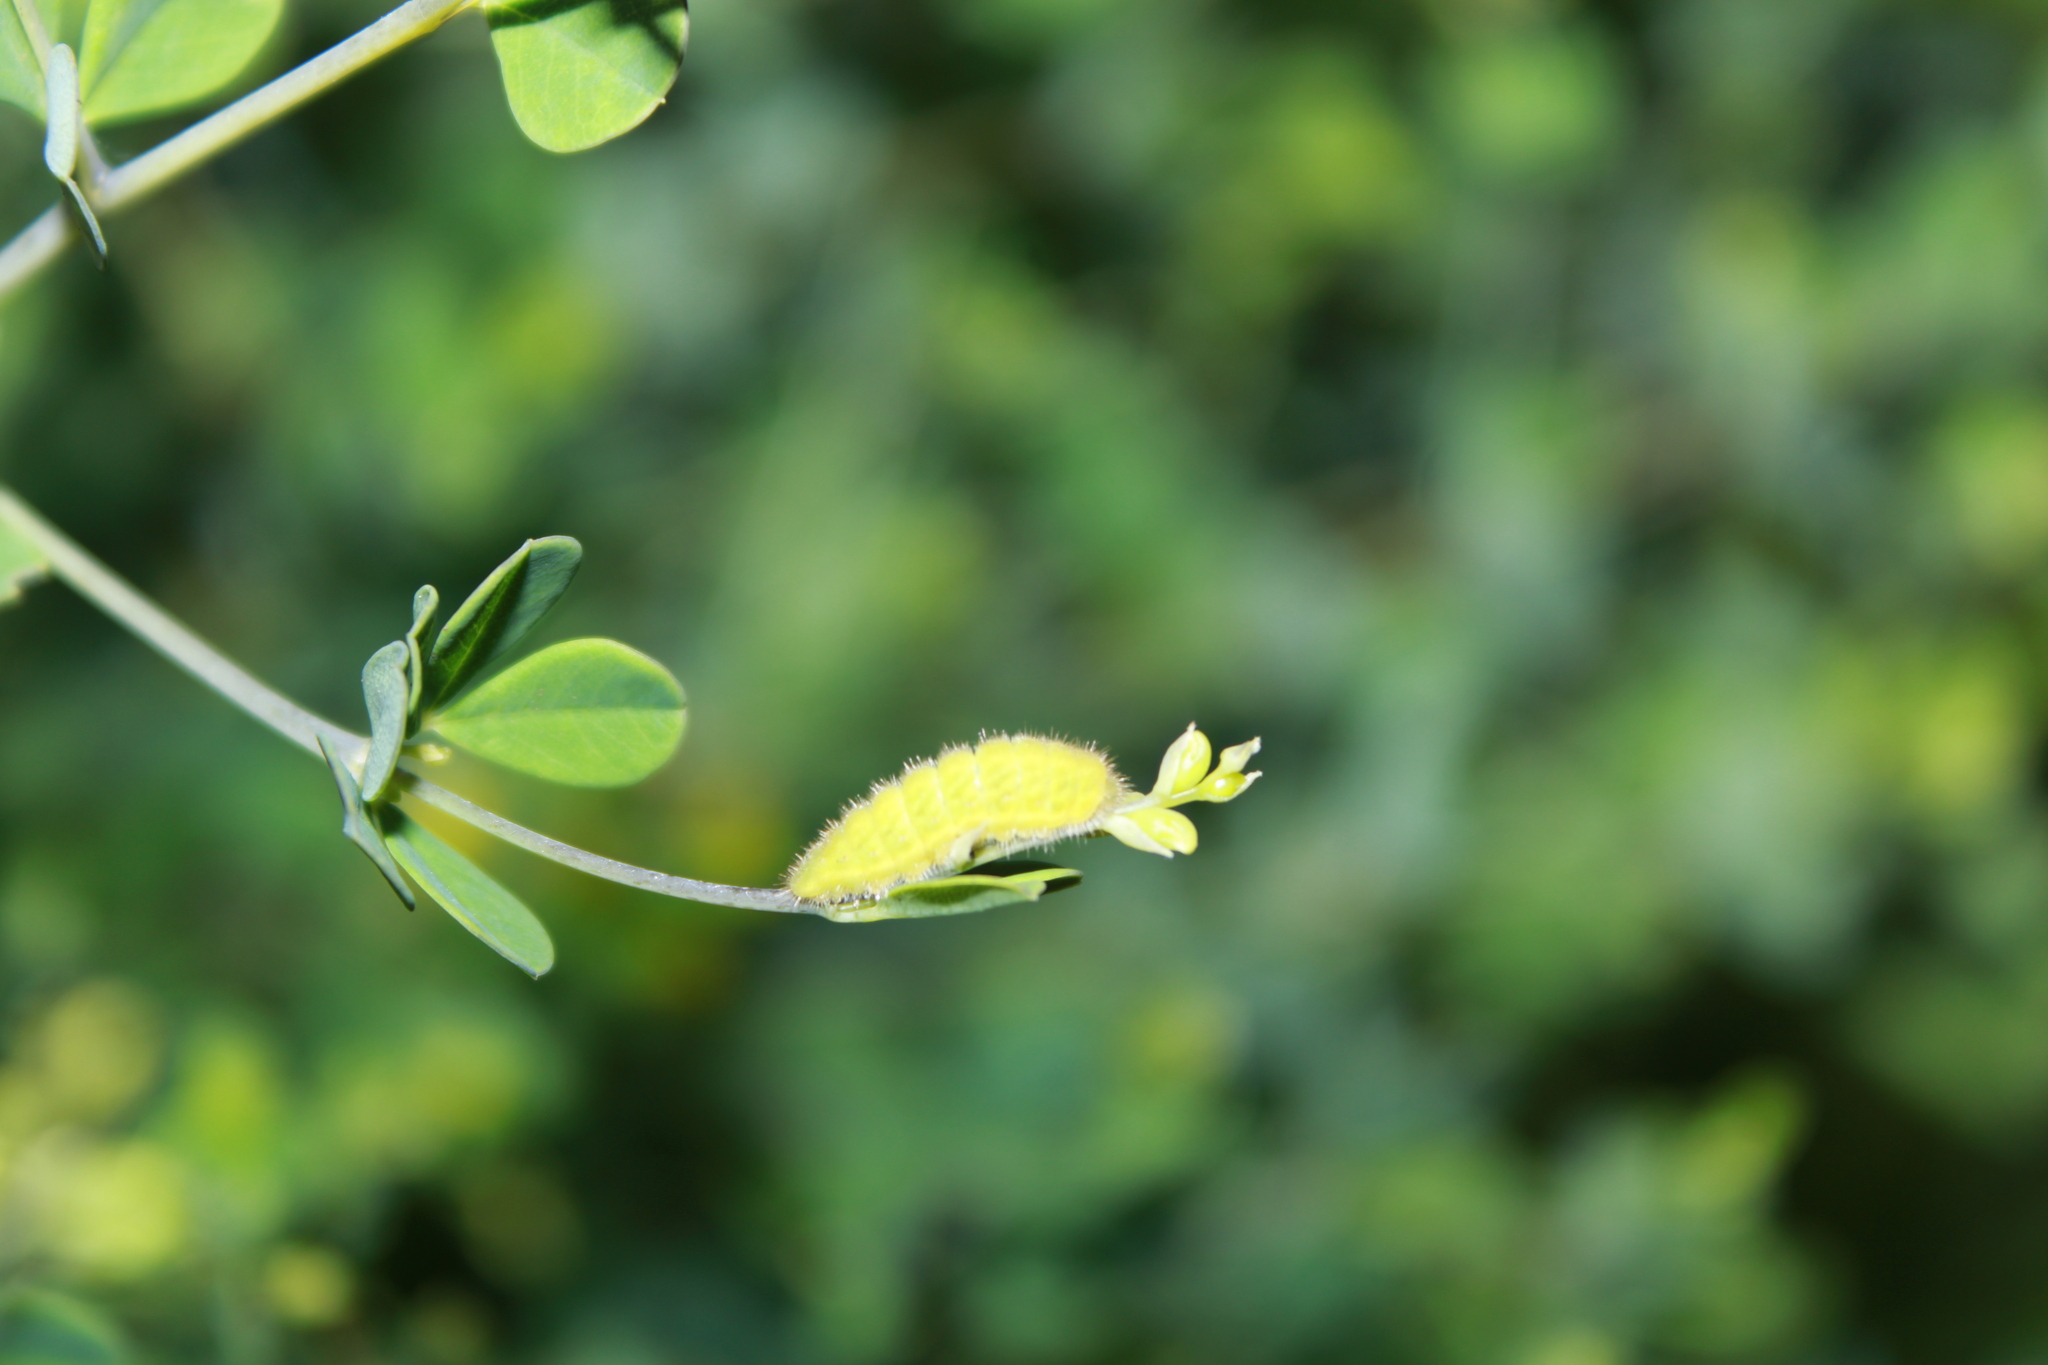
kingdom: Animalia
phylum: Arthropoda
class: Insecta
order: Lepidoptera
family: Lycaenidae
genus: Thecla
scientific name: Thecla irus
